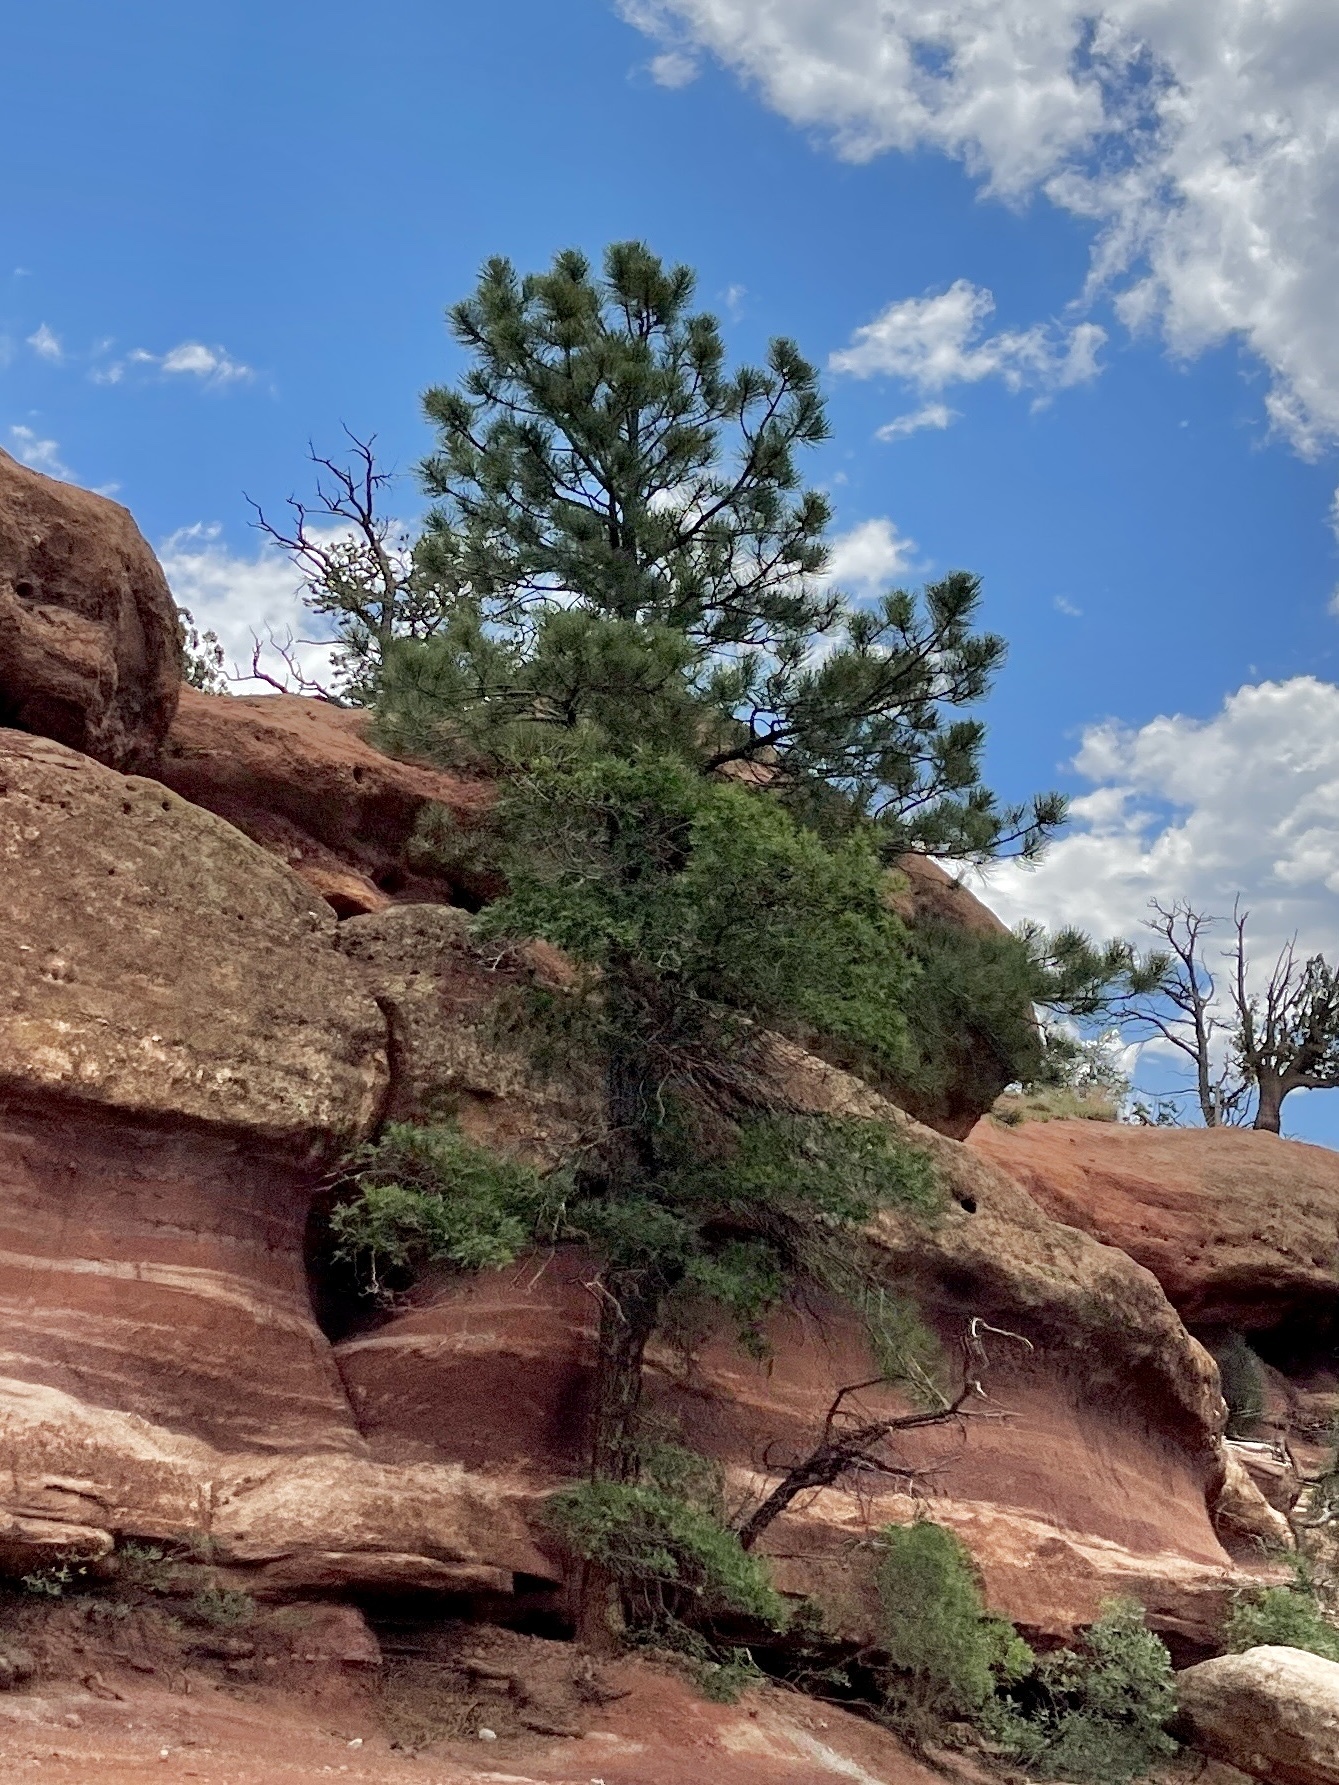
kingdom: Plantae
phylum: Tracheophyta
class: Pinopsida
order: Pinales
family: Pinaceae
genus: Pinus
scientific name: Pinus ponderosa
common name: Western yellow-pine
